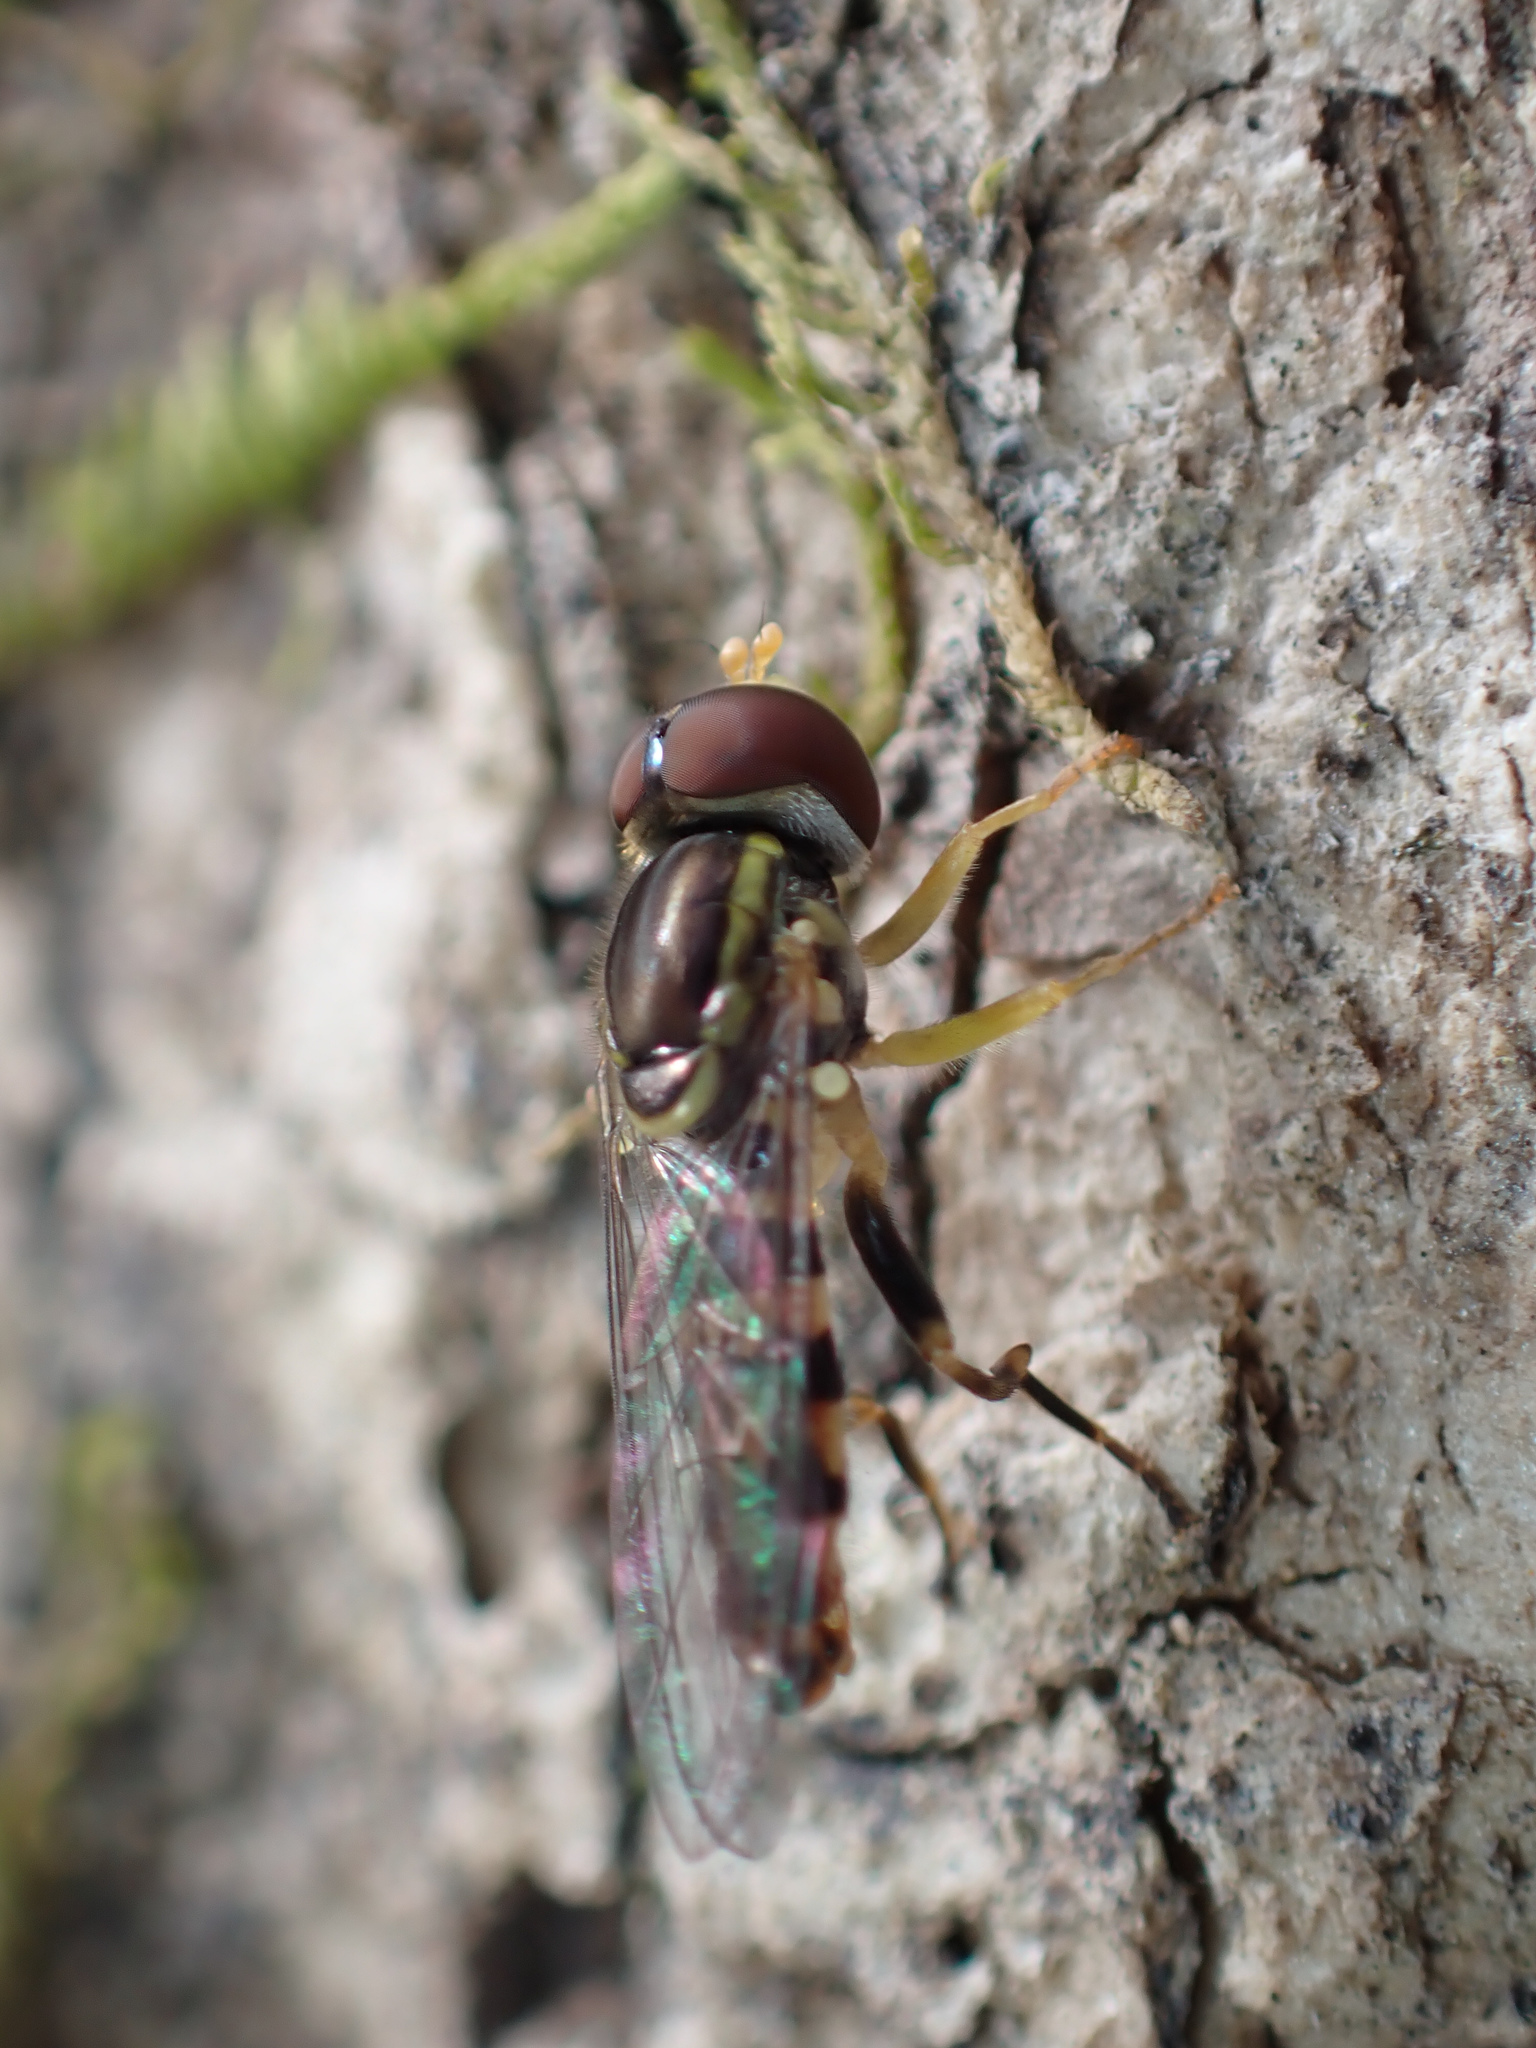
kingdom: Animalia
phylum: Arthropoda
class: Insecta
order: Diptera
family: Syrphidae
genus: Toxomerus
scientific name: Toxomerus geminatus
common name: Eastern calligrapher
